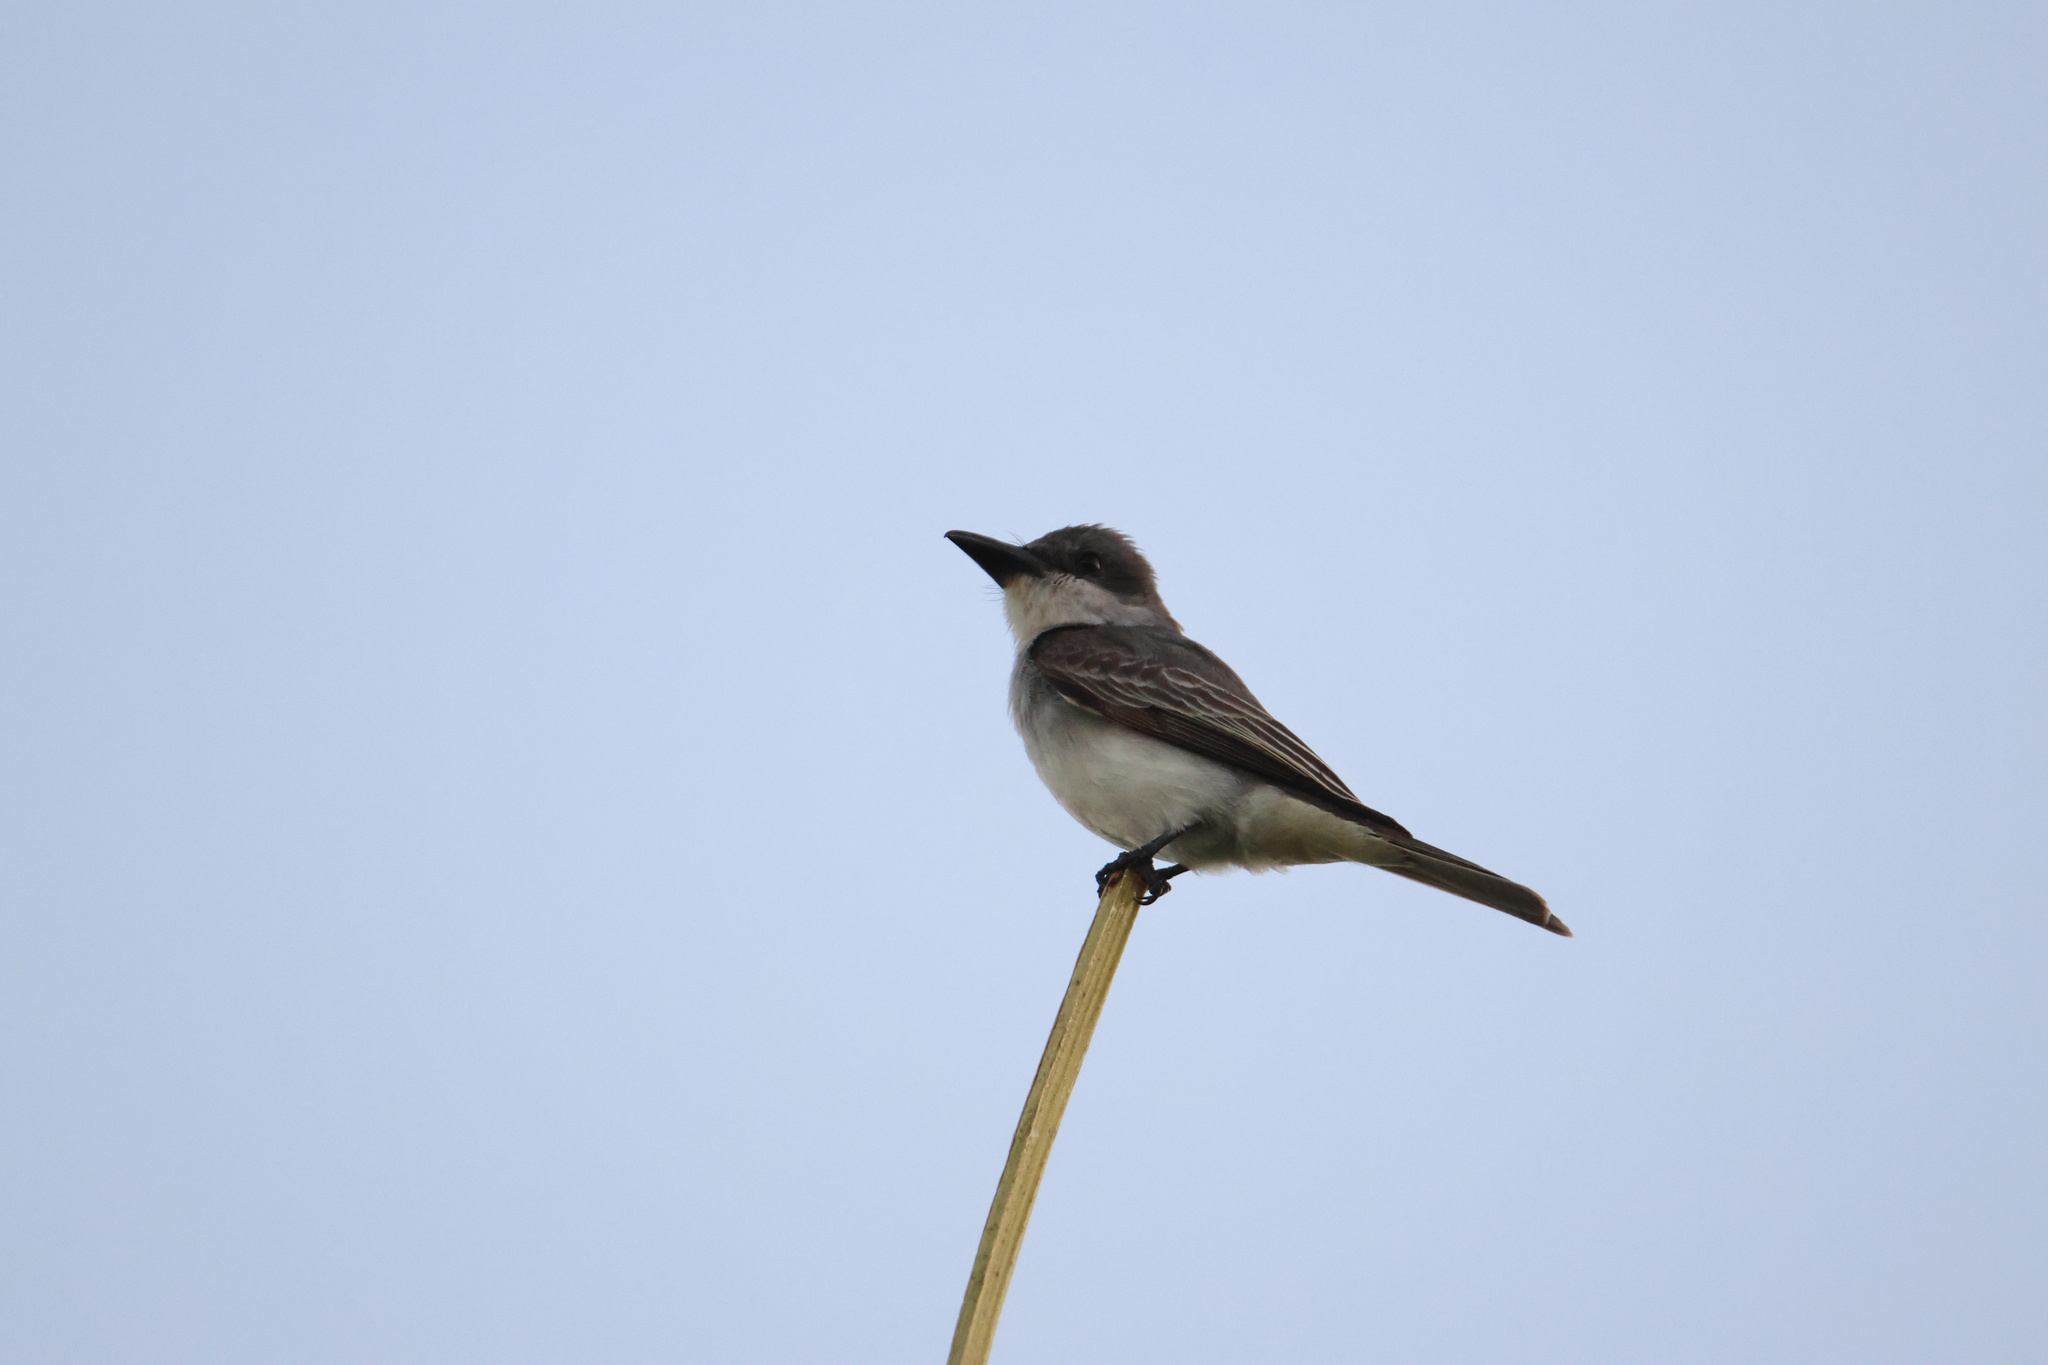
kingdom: Animalia
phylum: Chordata
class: Aves
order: Passeriformes
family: Tyrannidae
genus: Tyrannus
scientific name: Tyrannus dominicensis
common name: Gray kingbird
